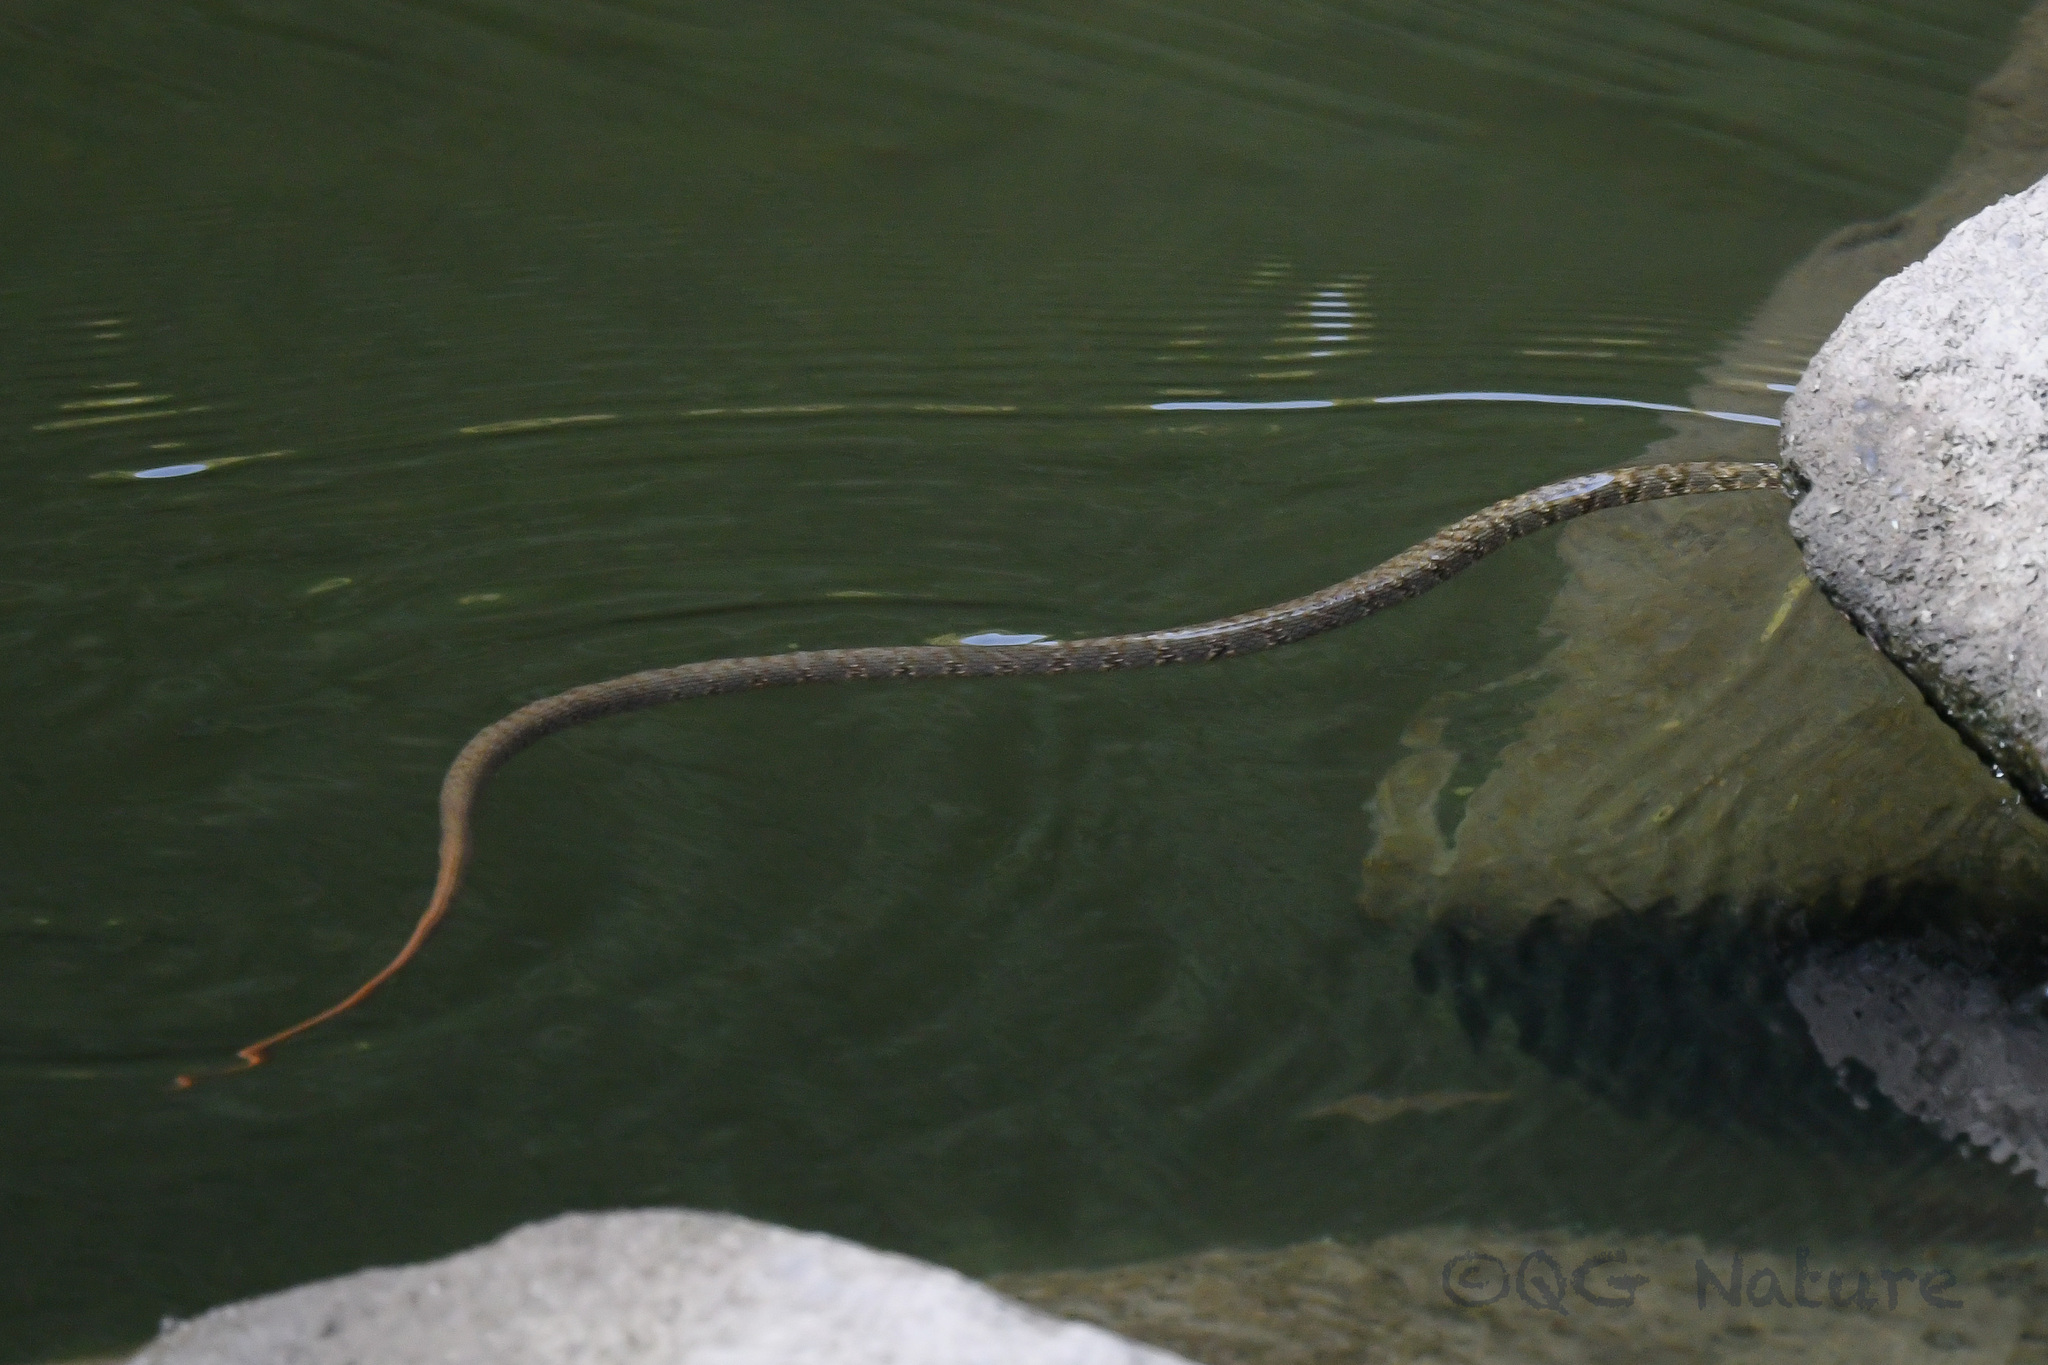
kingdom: Animalia
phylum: Chordata
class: Squamata
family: Colubridae
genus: Trimerodytes
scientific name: Trimerodytes percarinatus
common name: Eastern water snake
